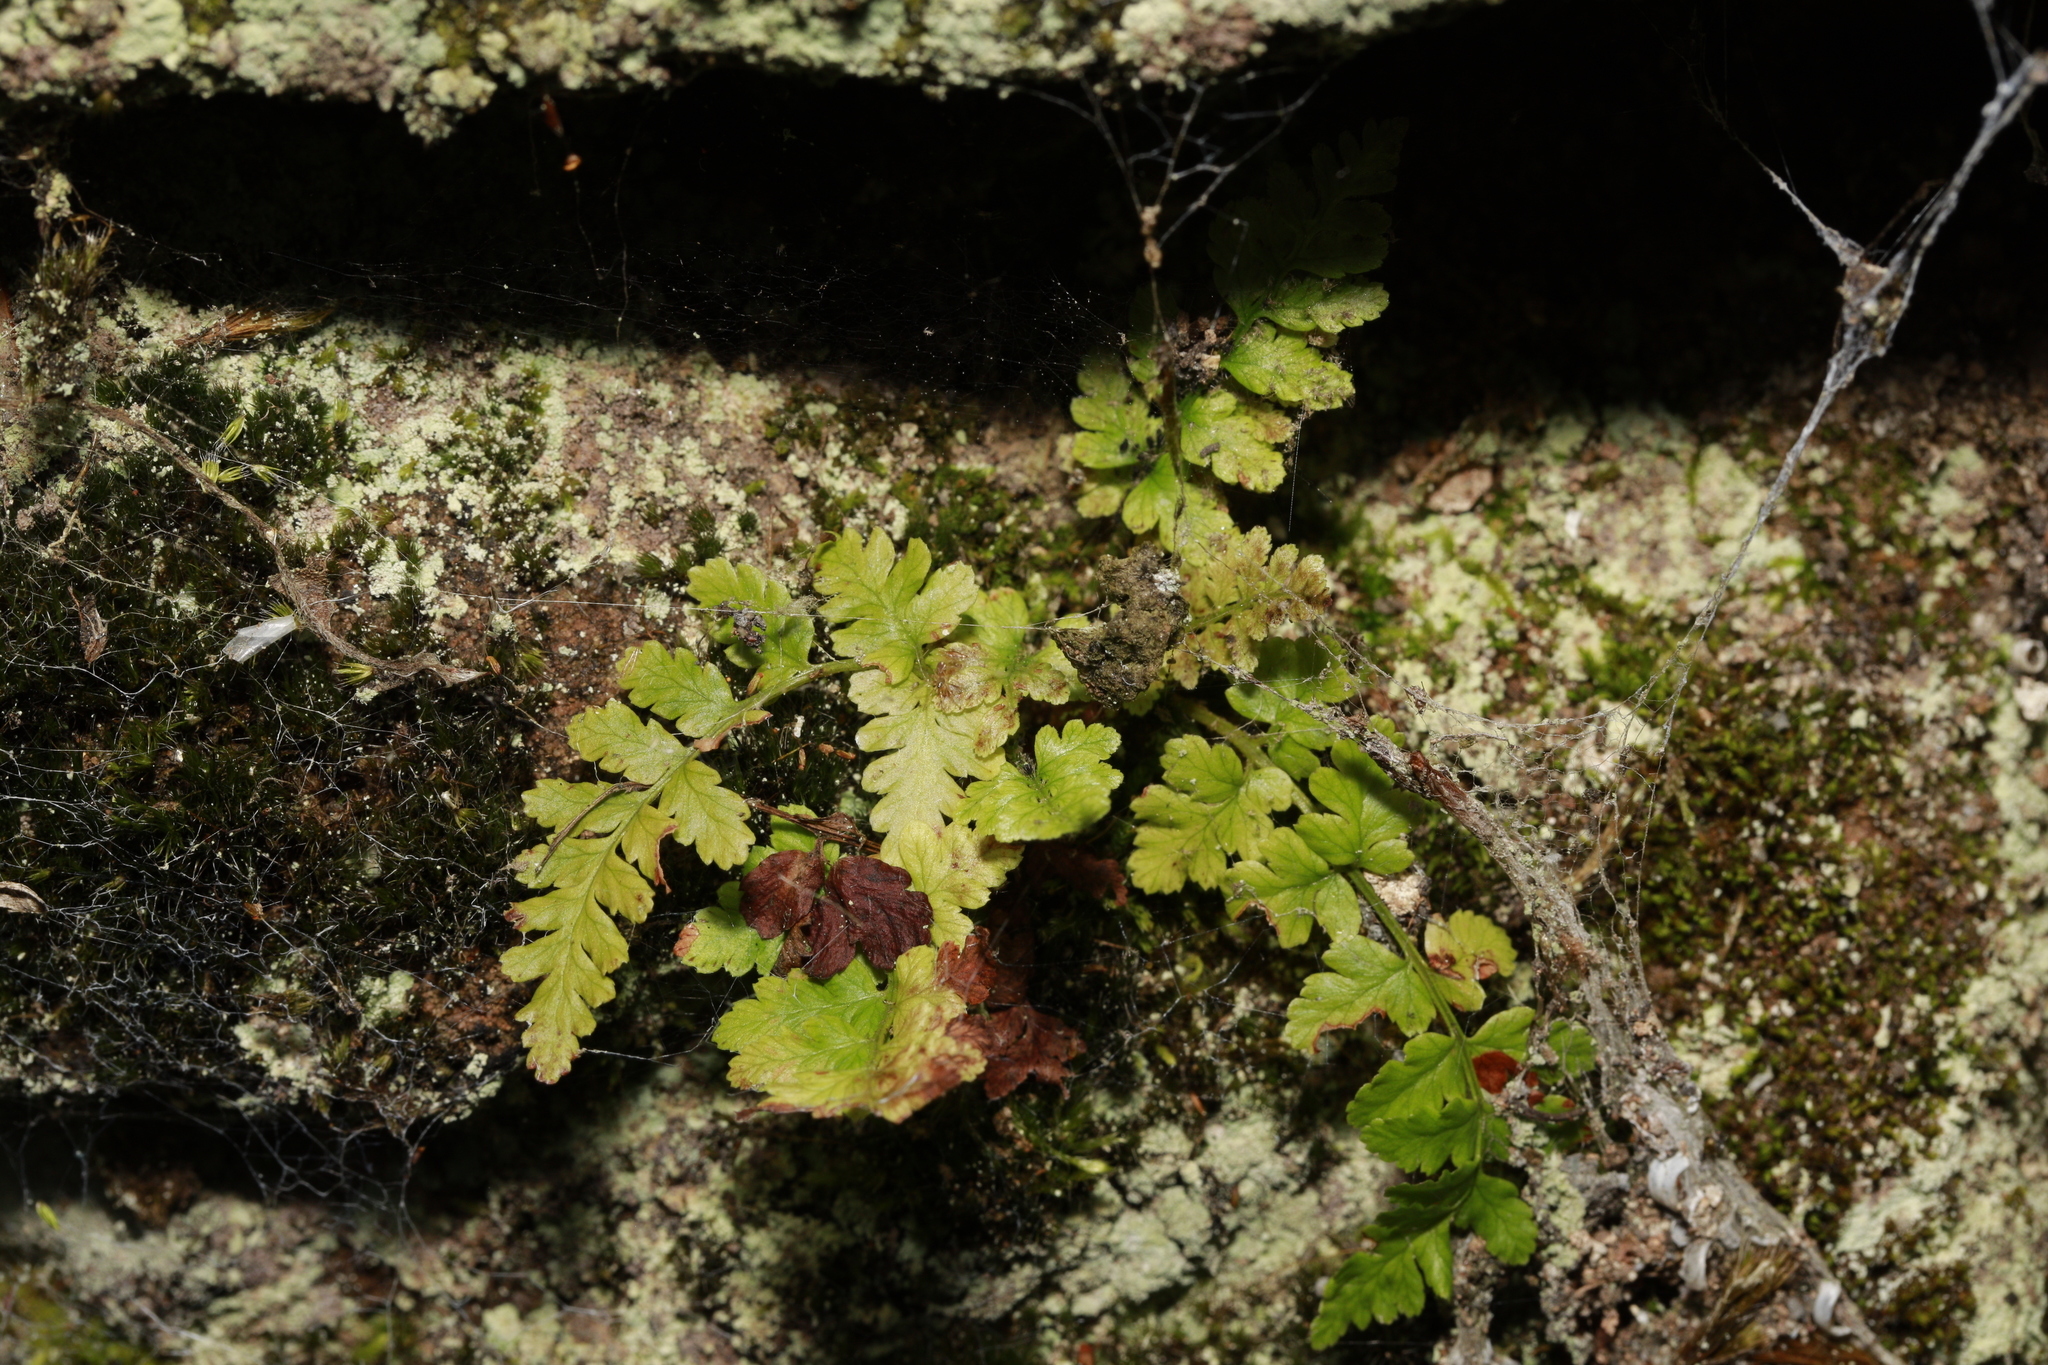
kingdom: Plantae
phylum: Tracheophyta
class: Polypodiopsida
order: Polypodiales
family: Aspleniaceae
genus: Asplenium
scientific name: Asplenium adiantum-nigrum
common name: Black spleenwort
